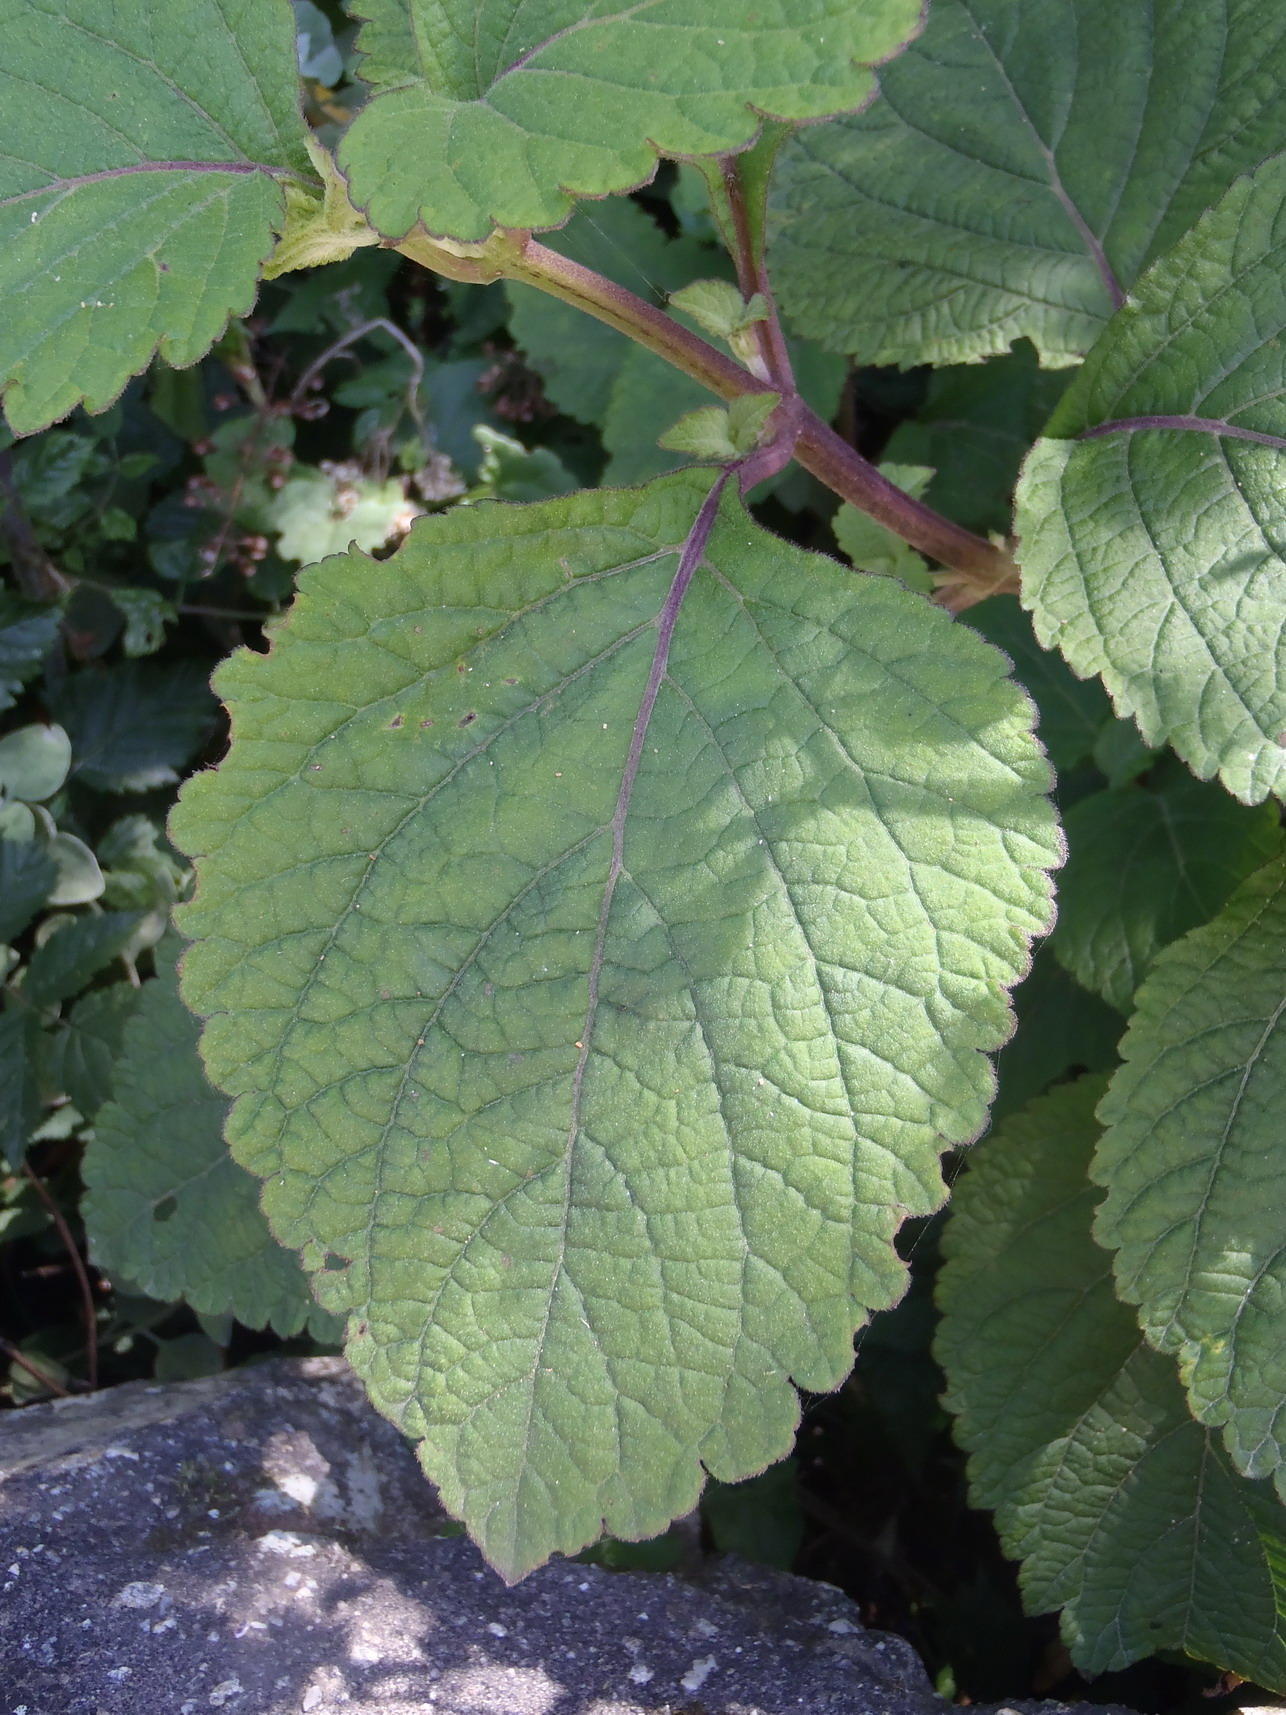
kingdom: Plantae
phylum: Tracheophyta
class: Magnoliopsida
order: Lamiales
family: Lamiaceae
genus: Plectranthus
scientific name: Plectranthus fruticosus
